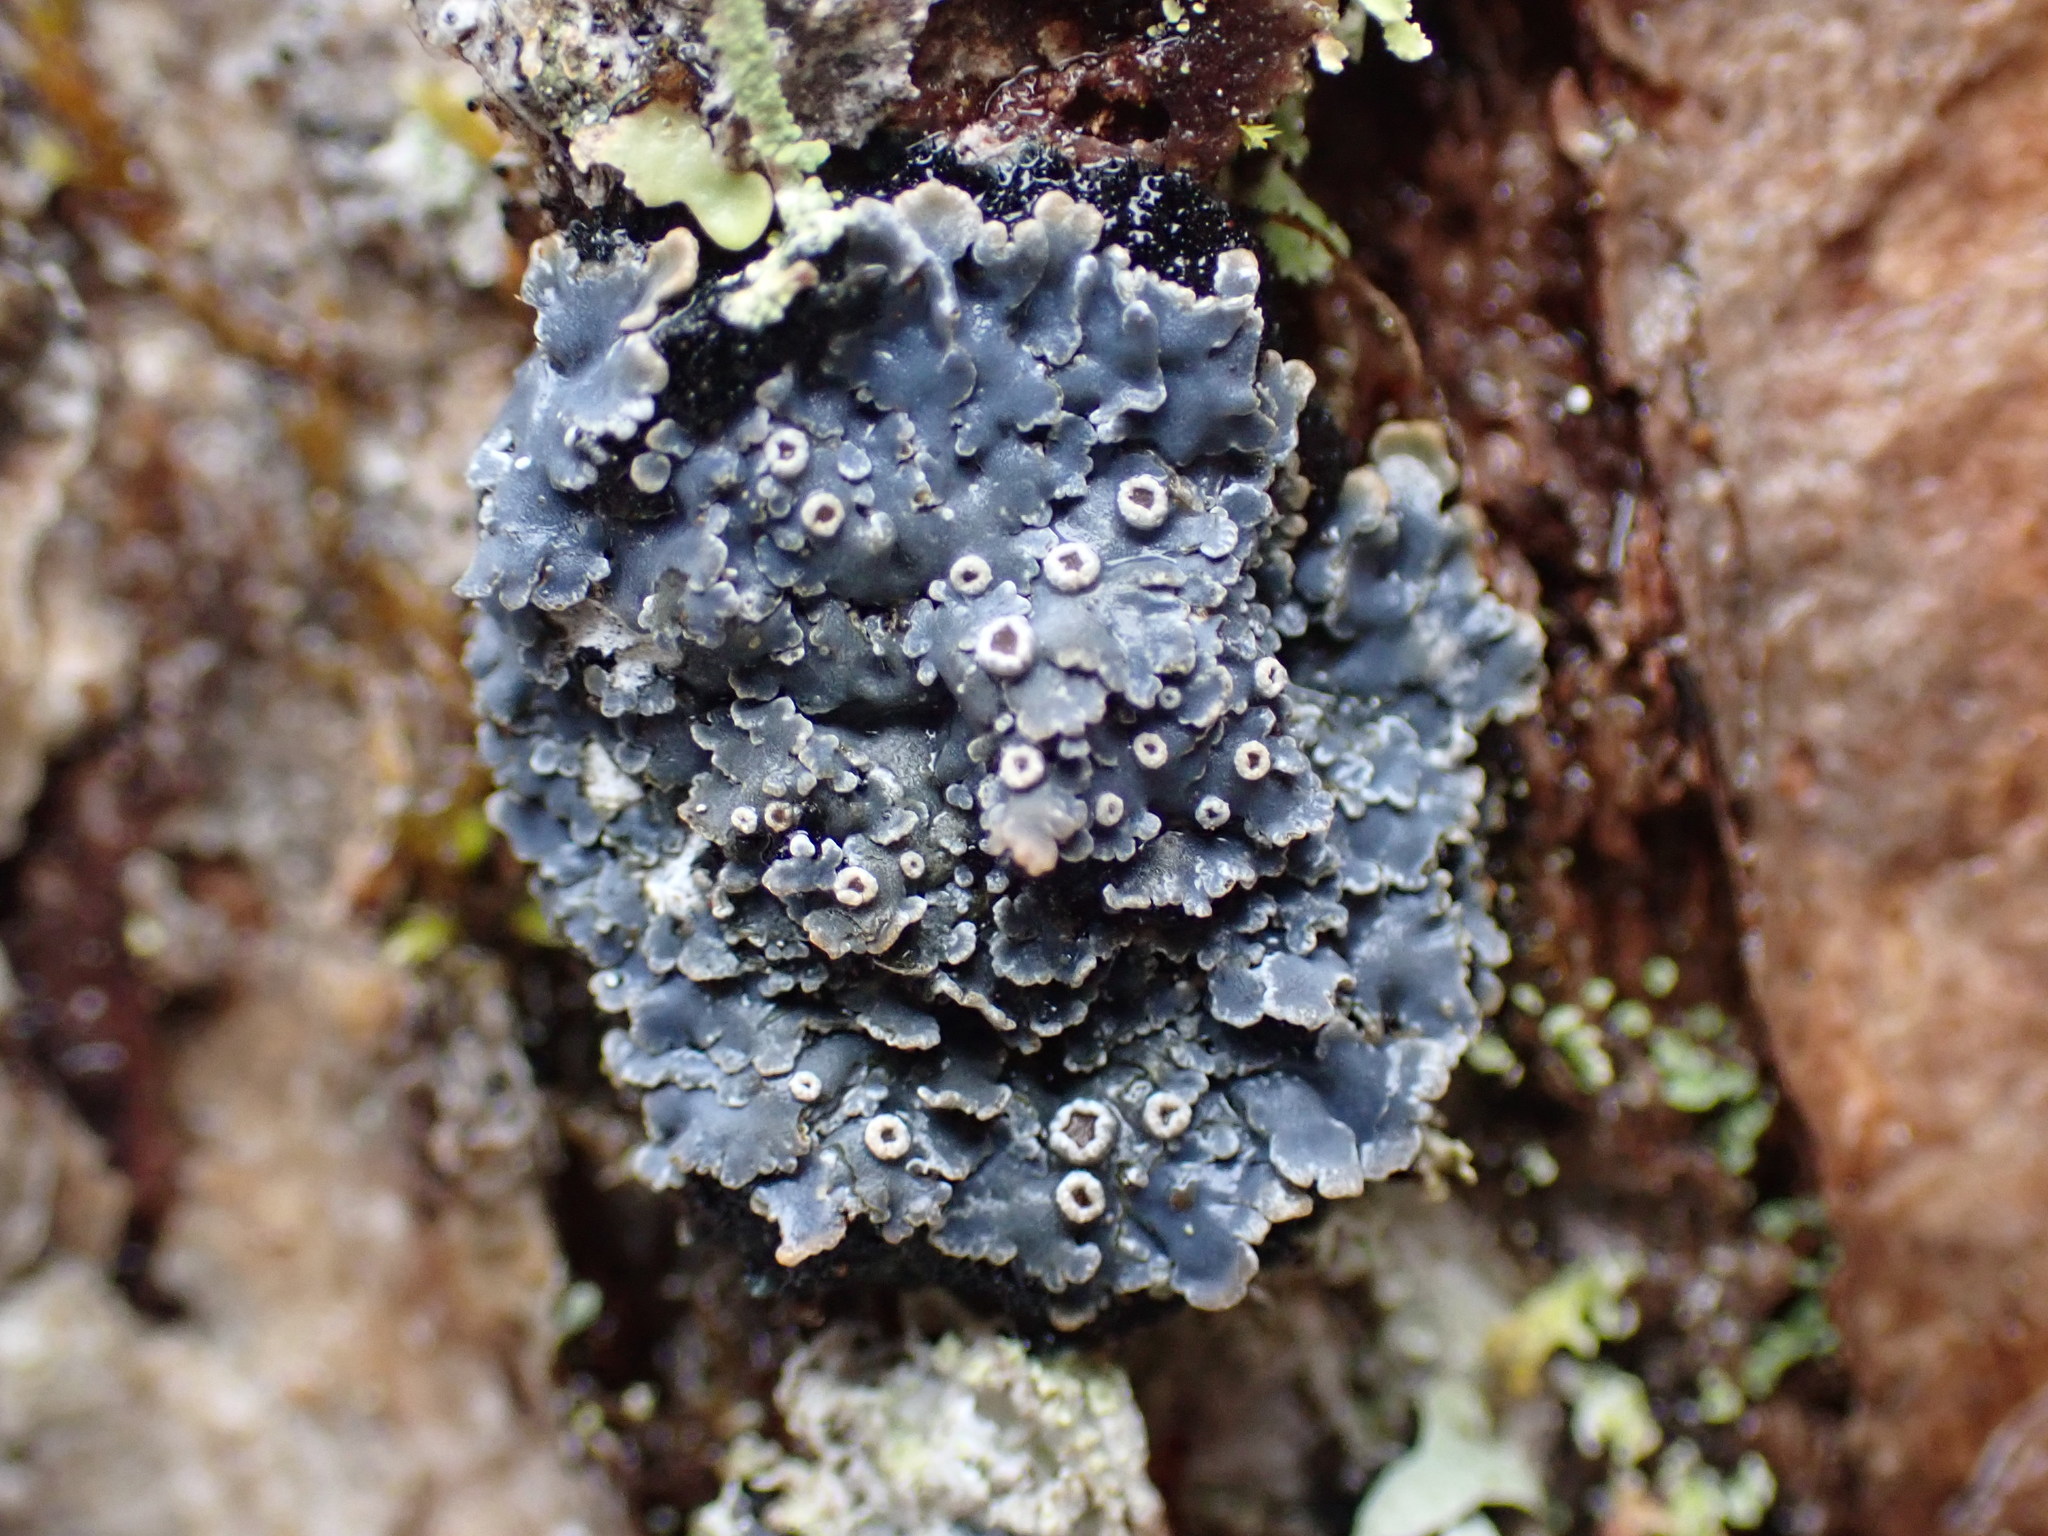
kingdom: Fungi
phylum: Ascomycota
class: Lecanoromycetes
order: Peltigerales
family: Pannariaceae
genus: Pannaria
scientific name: Pannaria rubiginosa
